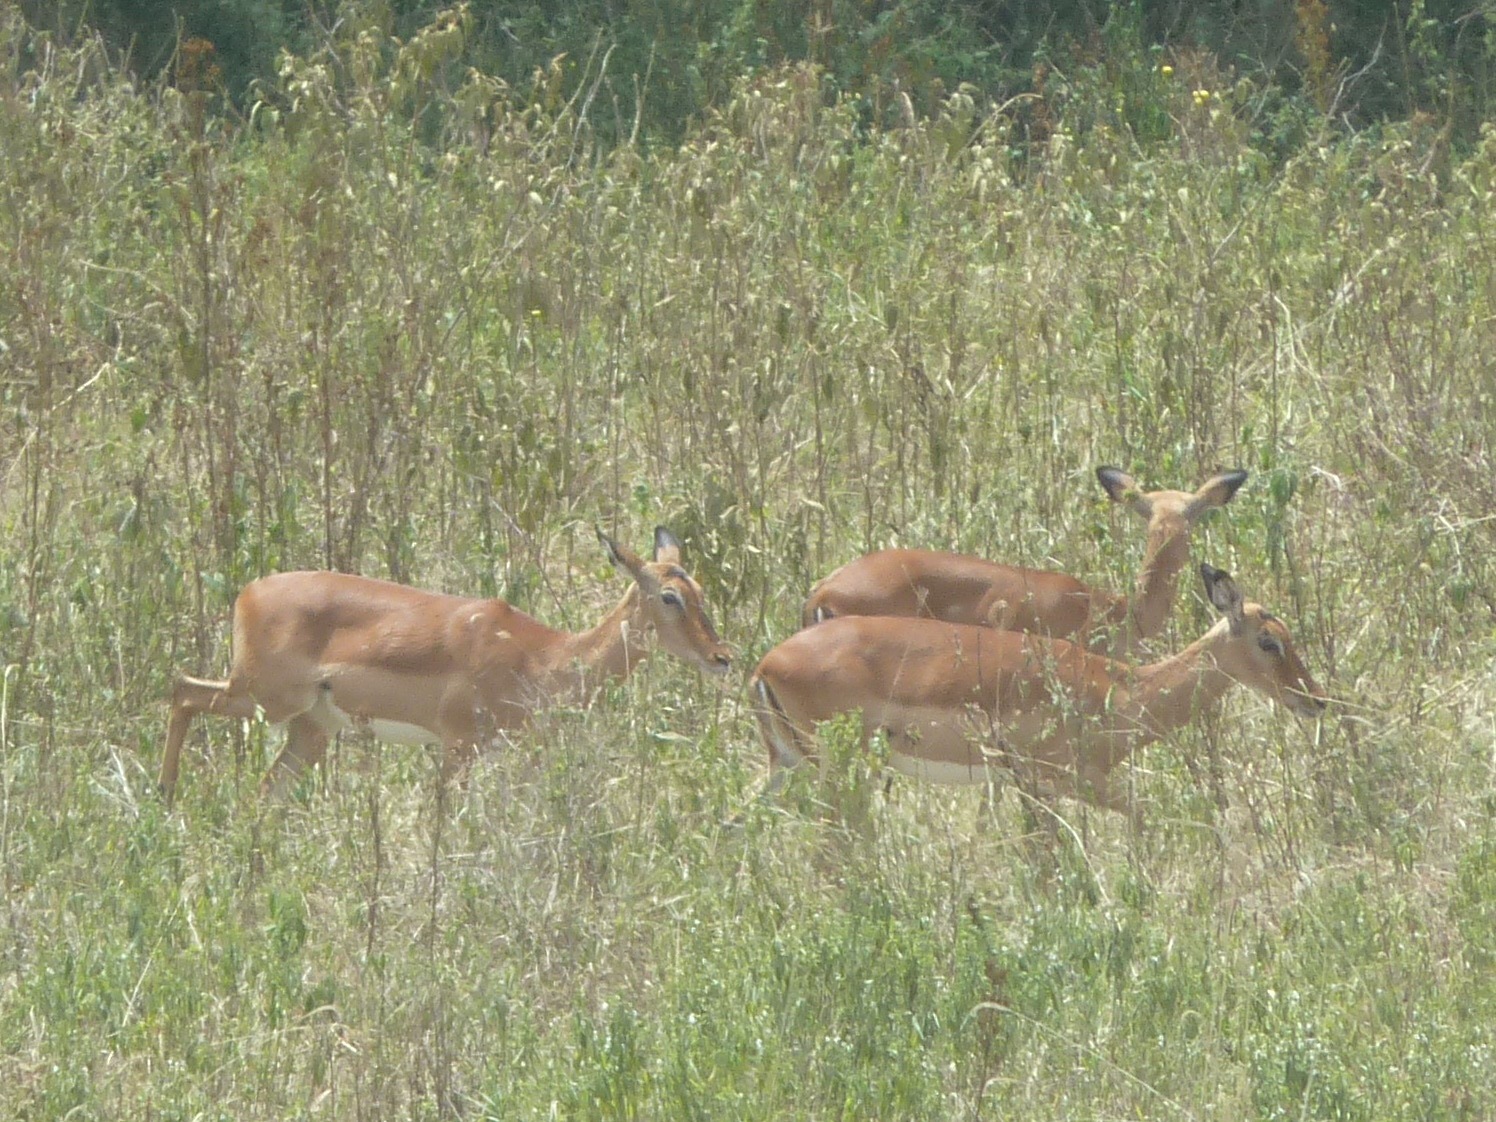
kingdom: Animalia
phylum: Chordata
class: Mammalia
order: Artiodactyla
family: Bovidae
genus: Aepyceros
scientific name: Aepyceros melampus
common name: Impala
